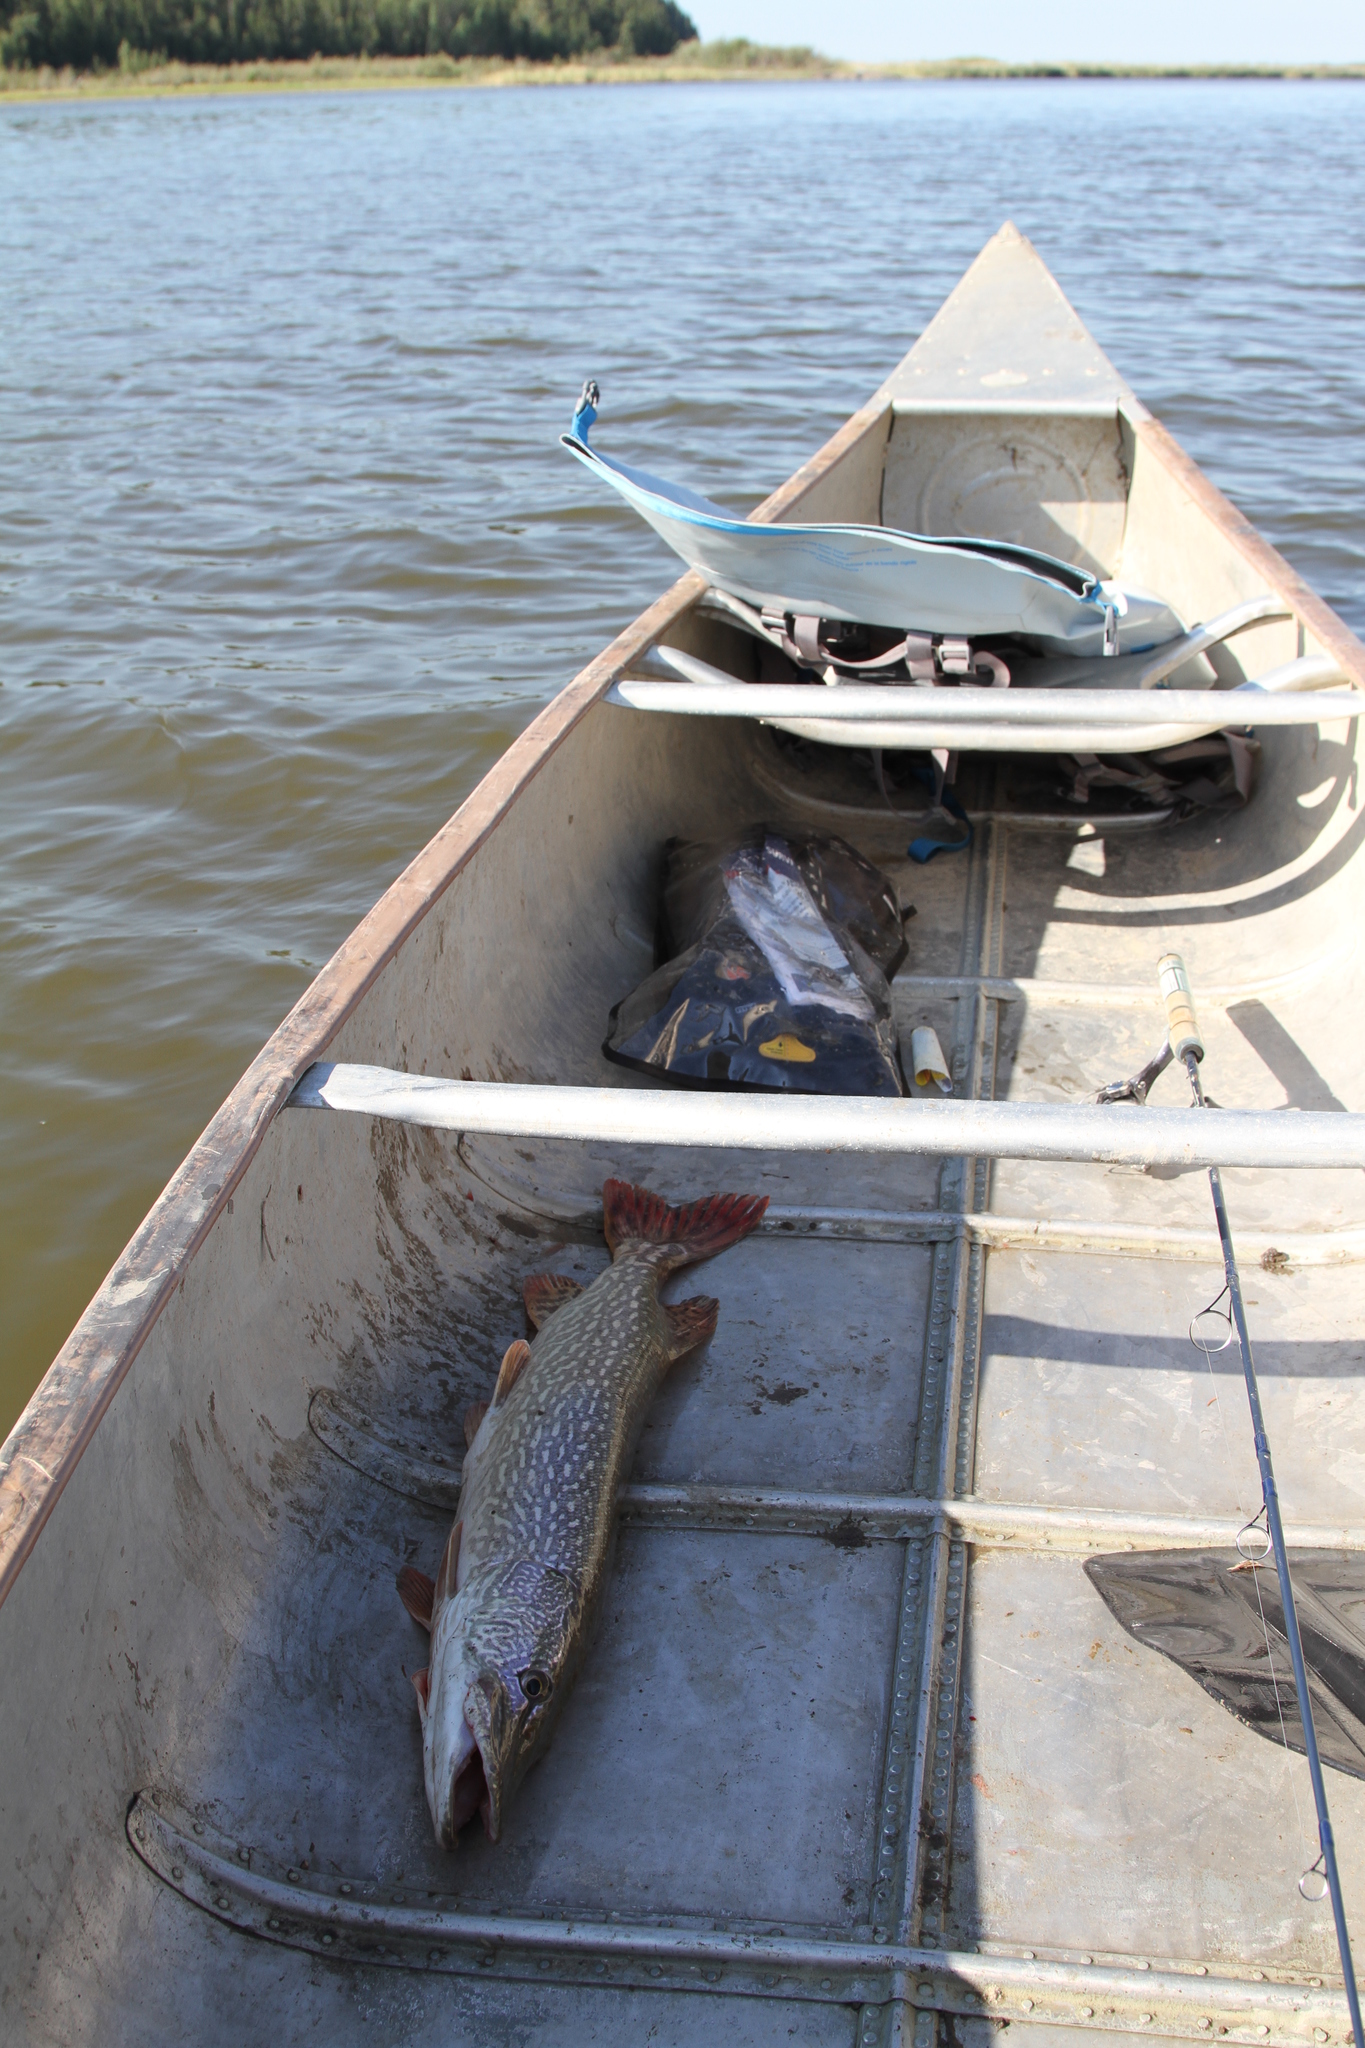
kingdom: Animalia
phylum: Chordata
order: Esociformes
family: Esocidae
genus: Esox
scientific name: Esox lucius
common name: Northern pike
